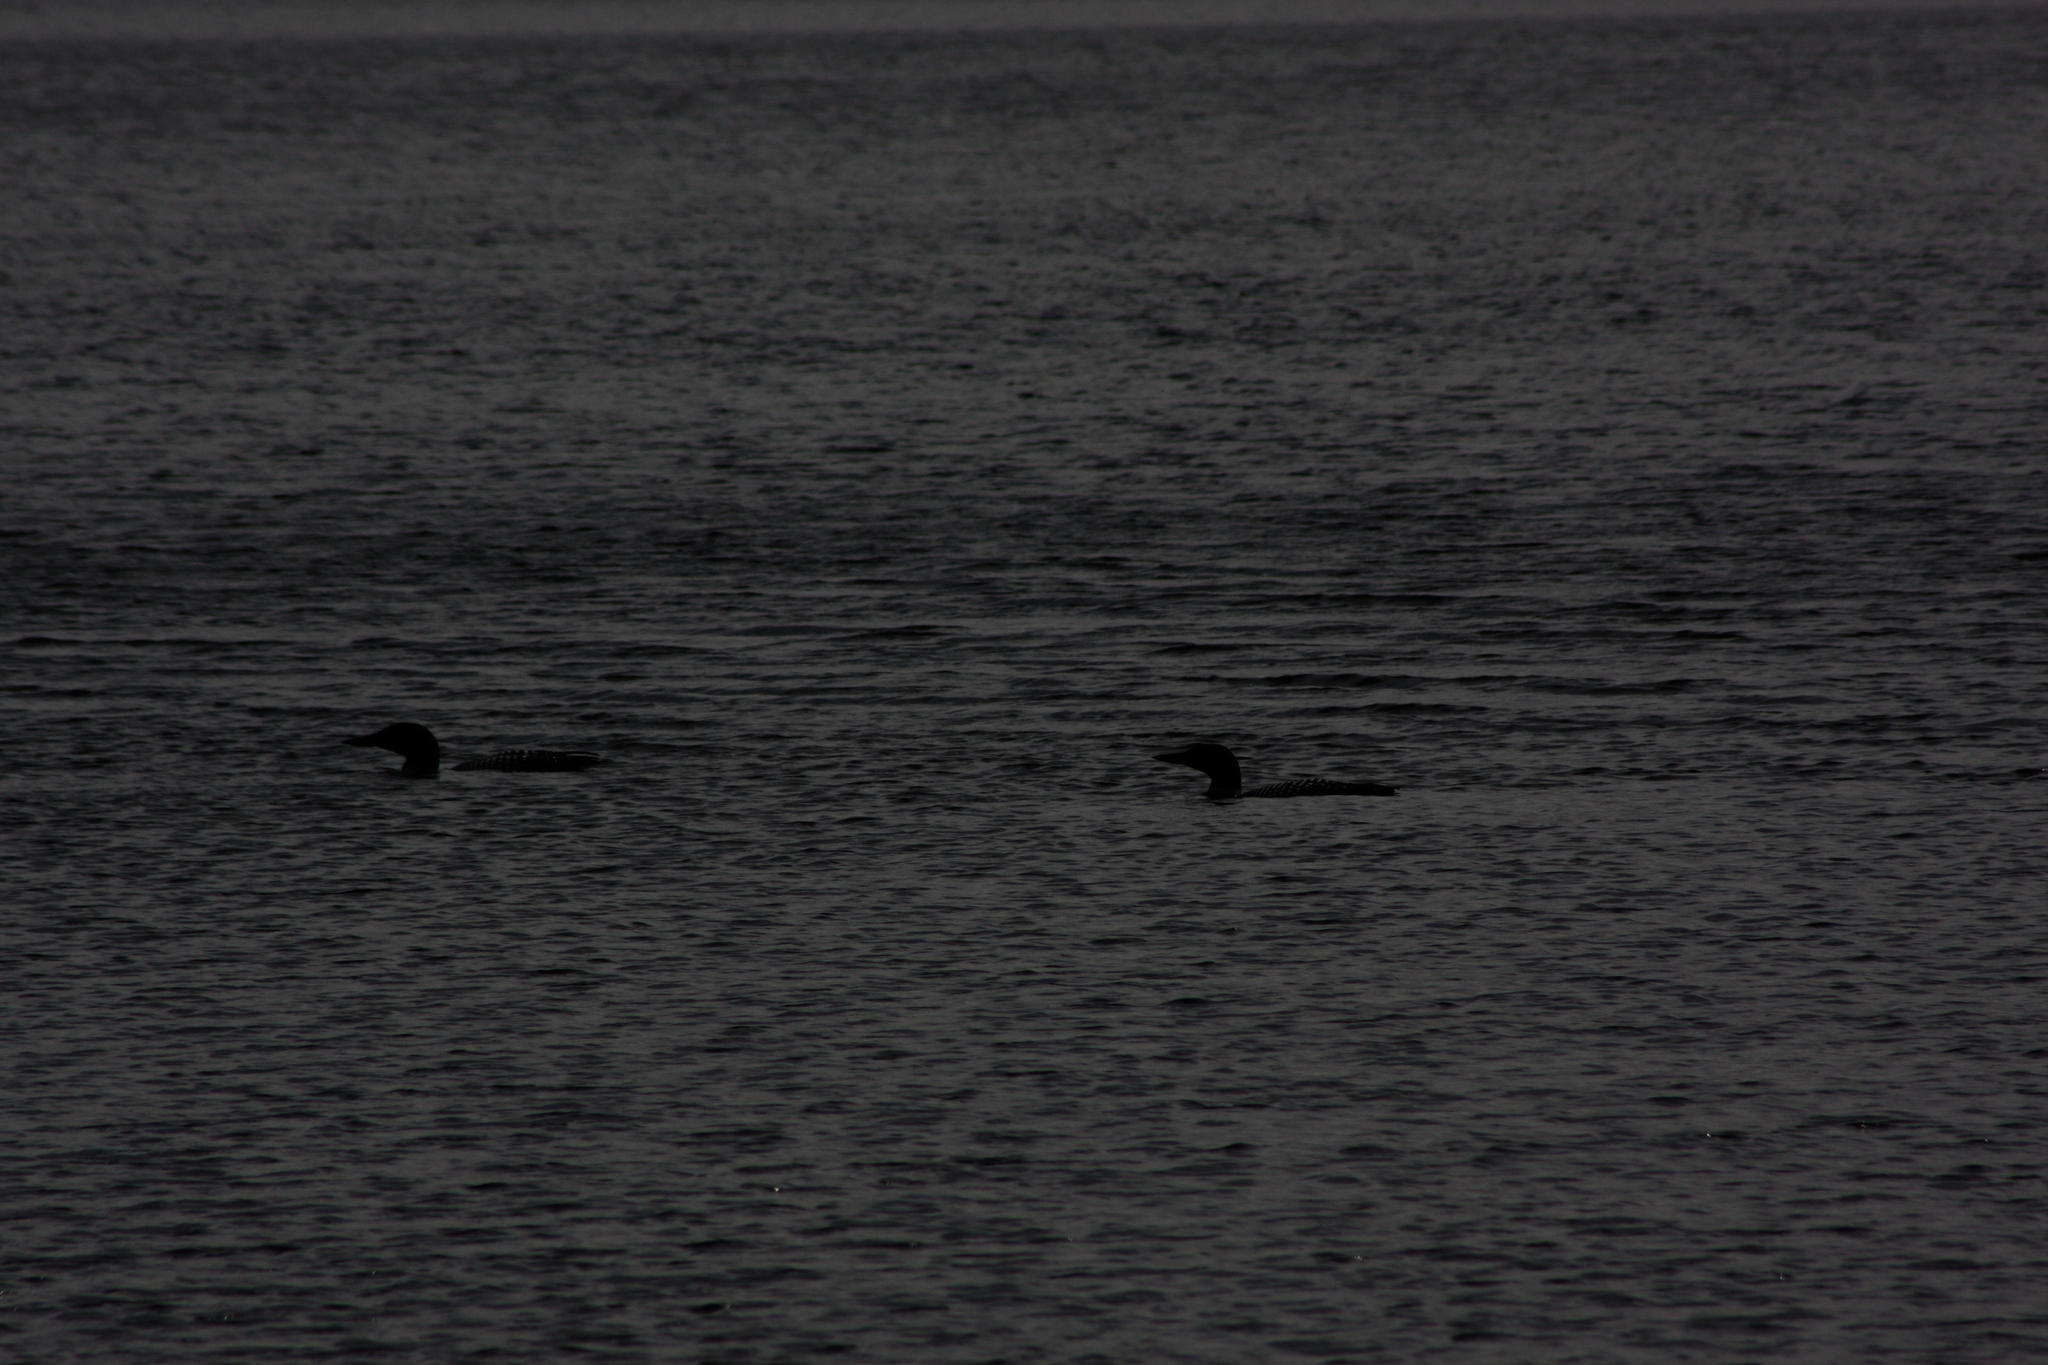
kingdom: Animalia
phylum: Chordata
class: Aves
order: Gaviiformes
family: Gaviidae
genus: Gavia
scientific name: Gavia immer
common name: Common loon
